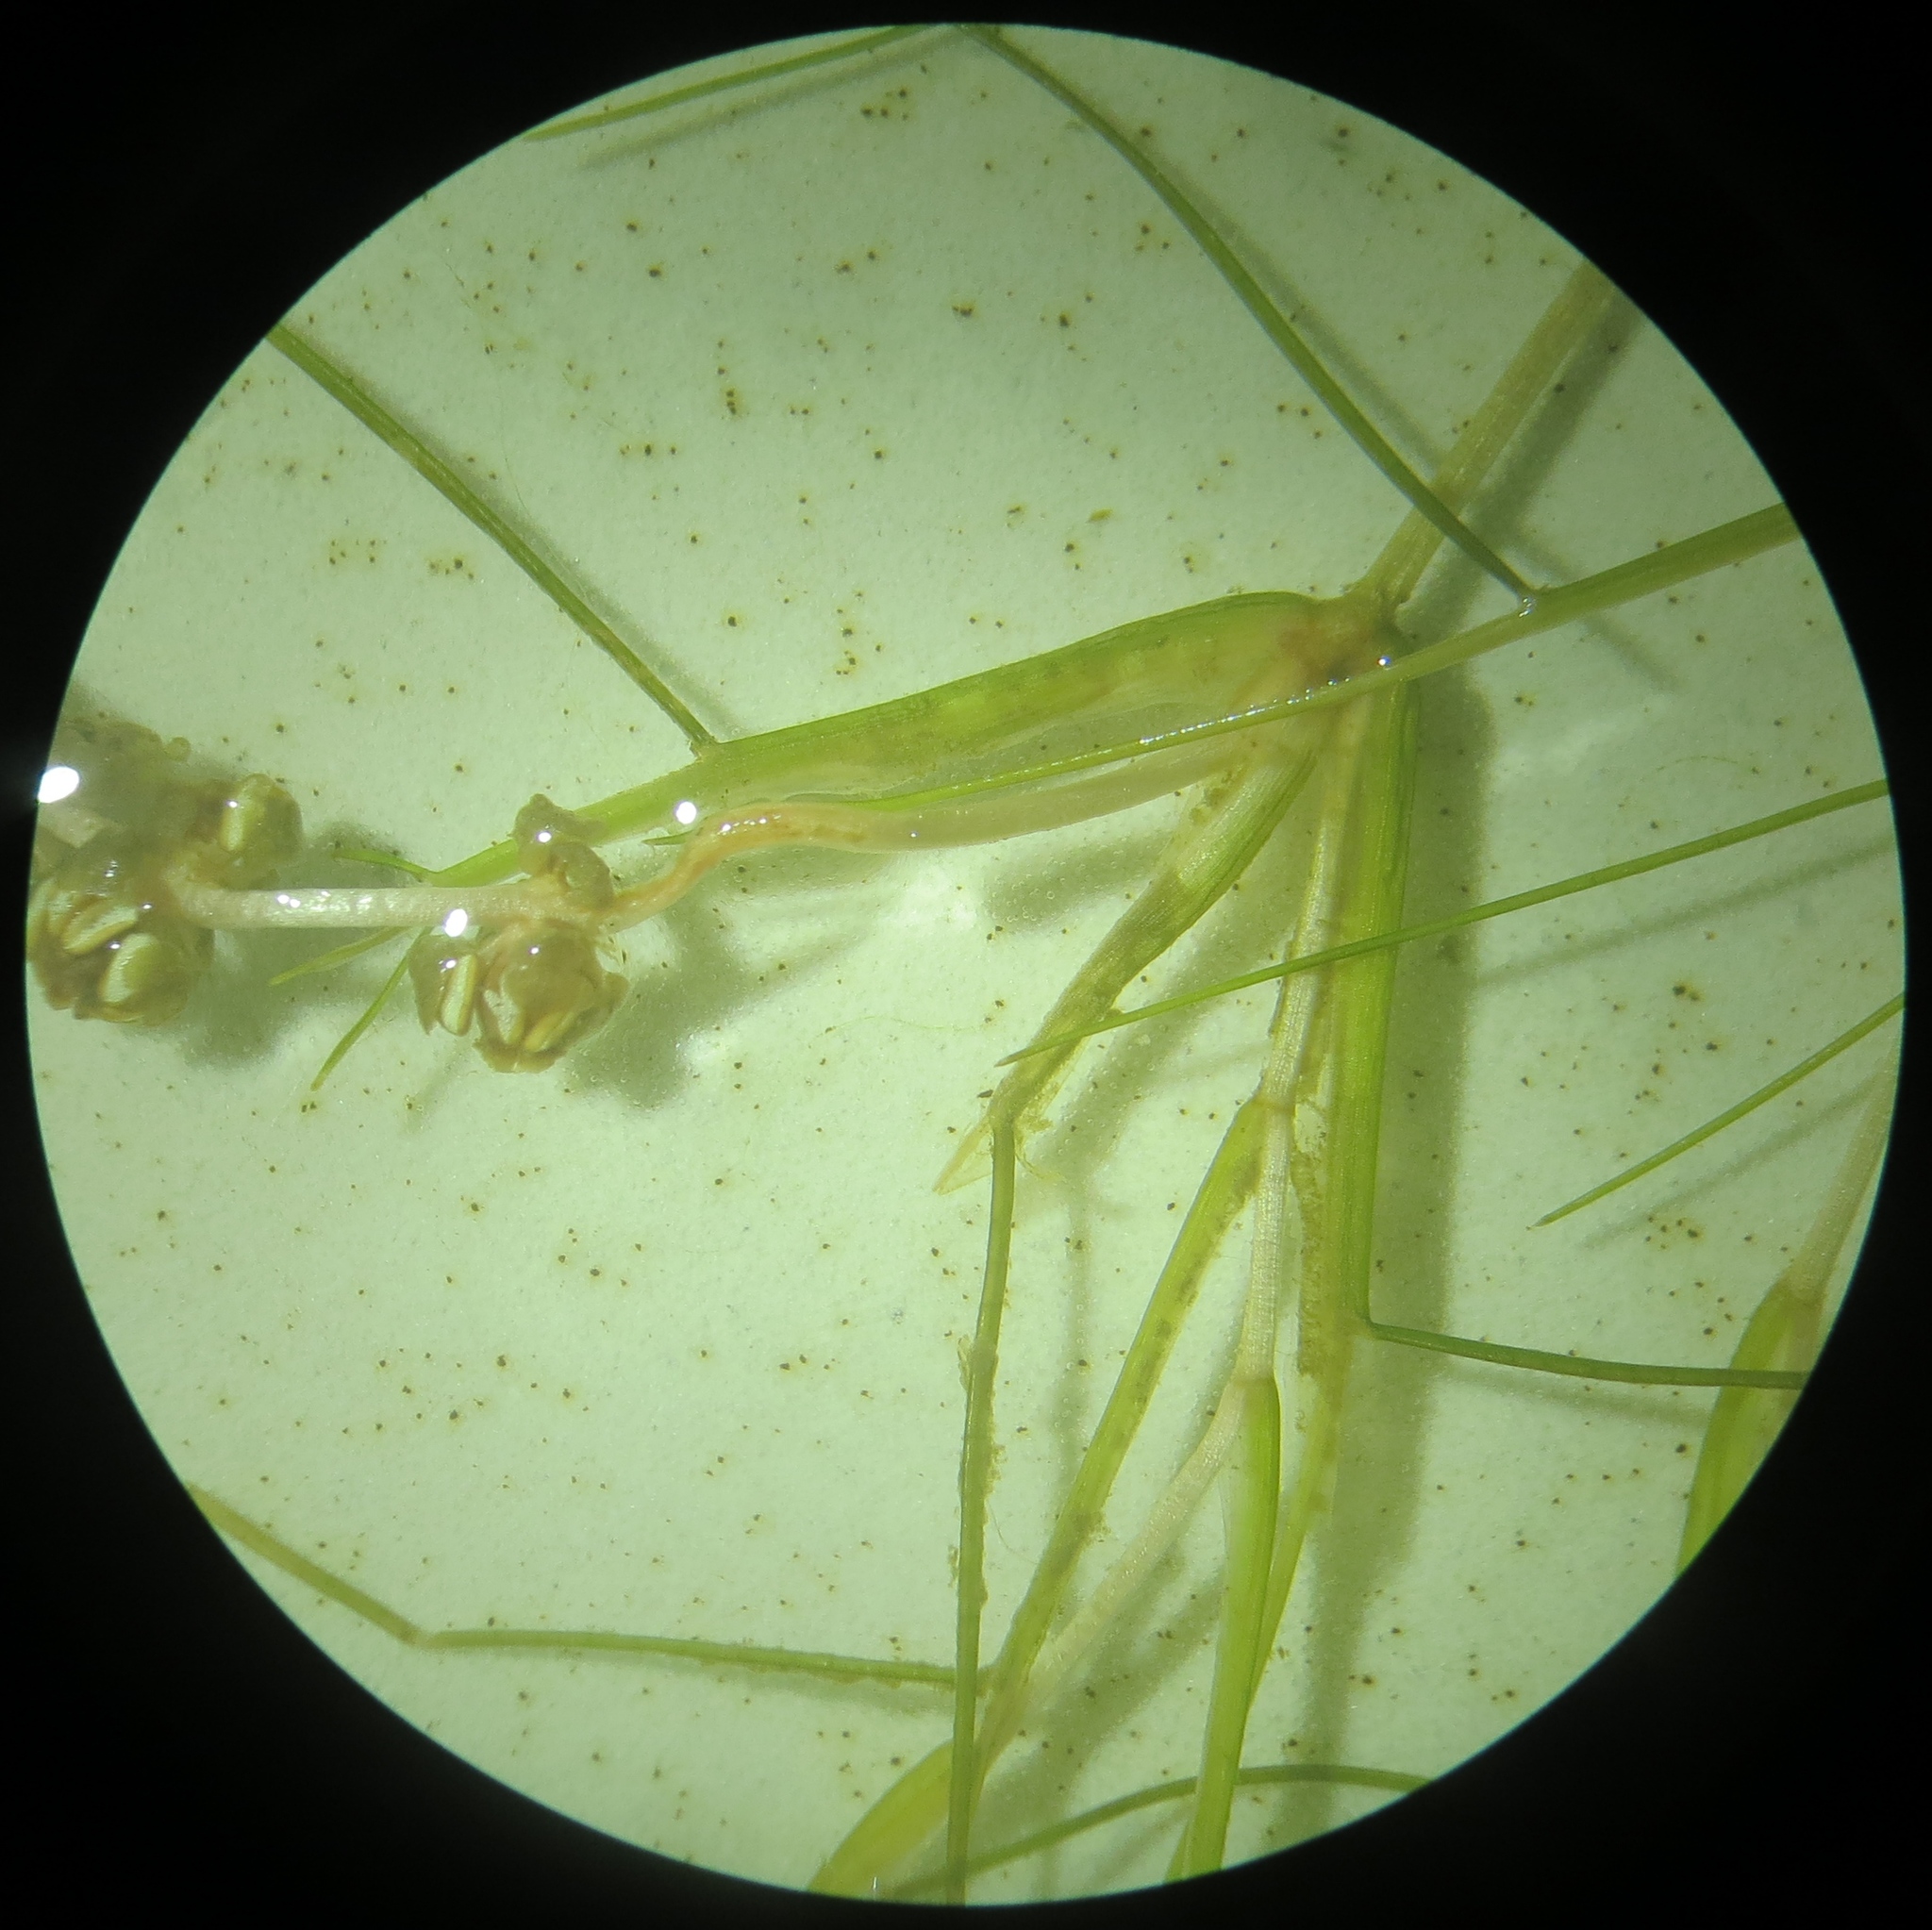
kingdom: Plantae
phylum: Tracheophyta
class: Liliopsida
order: Alismatales
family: Potamogetonaceae
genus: Stuckenia
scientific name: Stuckenia filiformis
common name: Alpine thread-leaved pondweed
